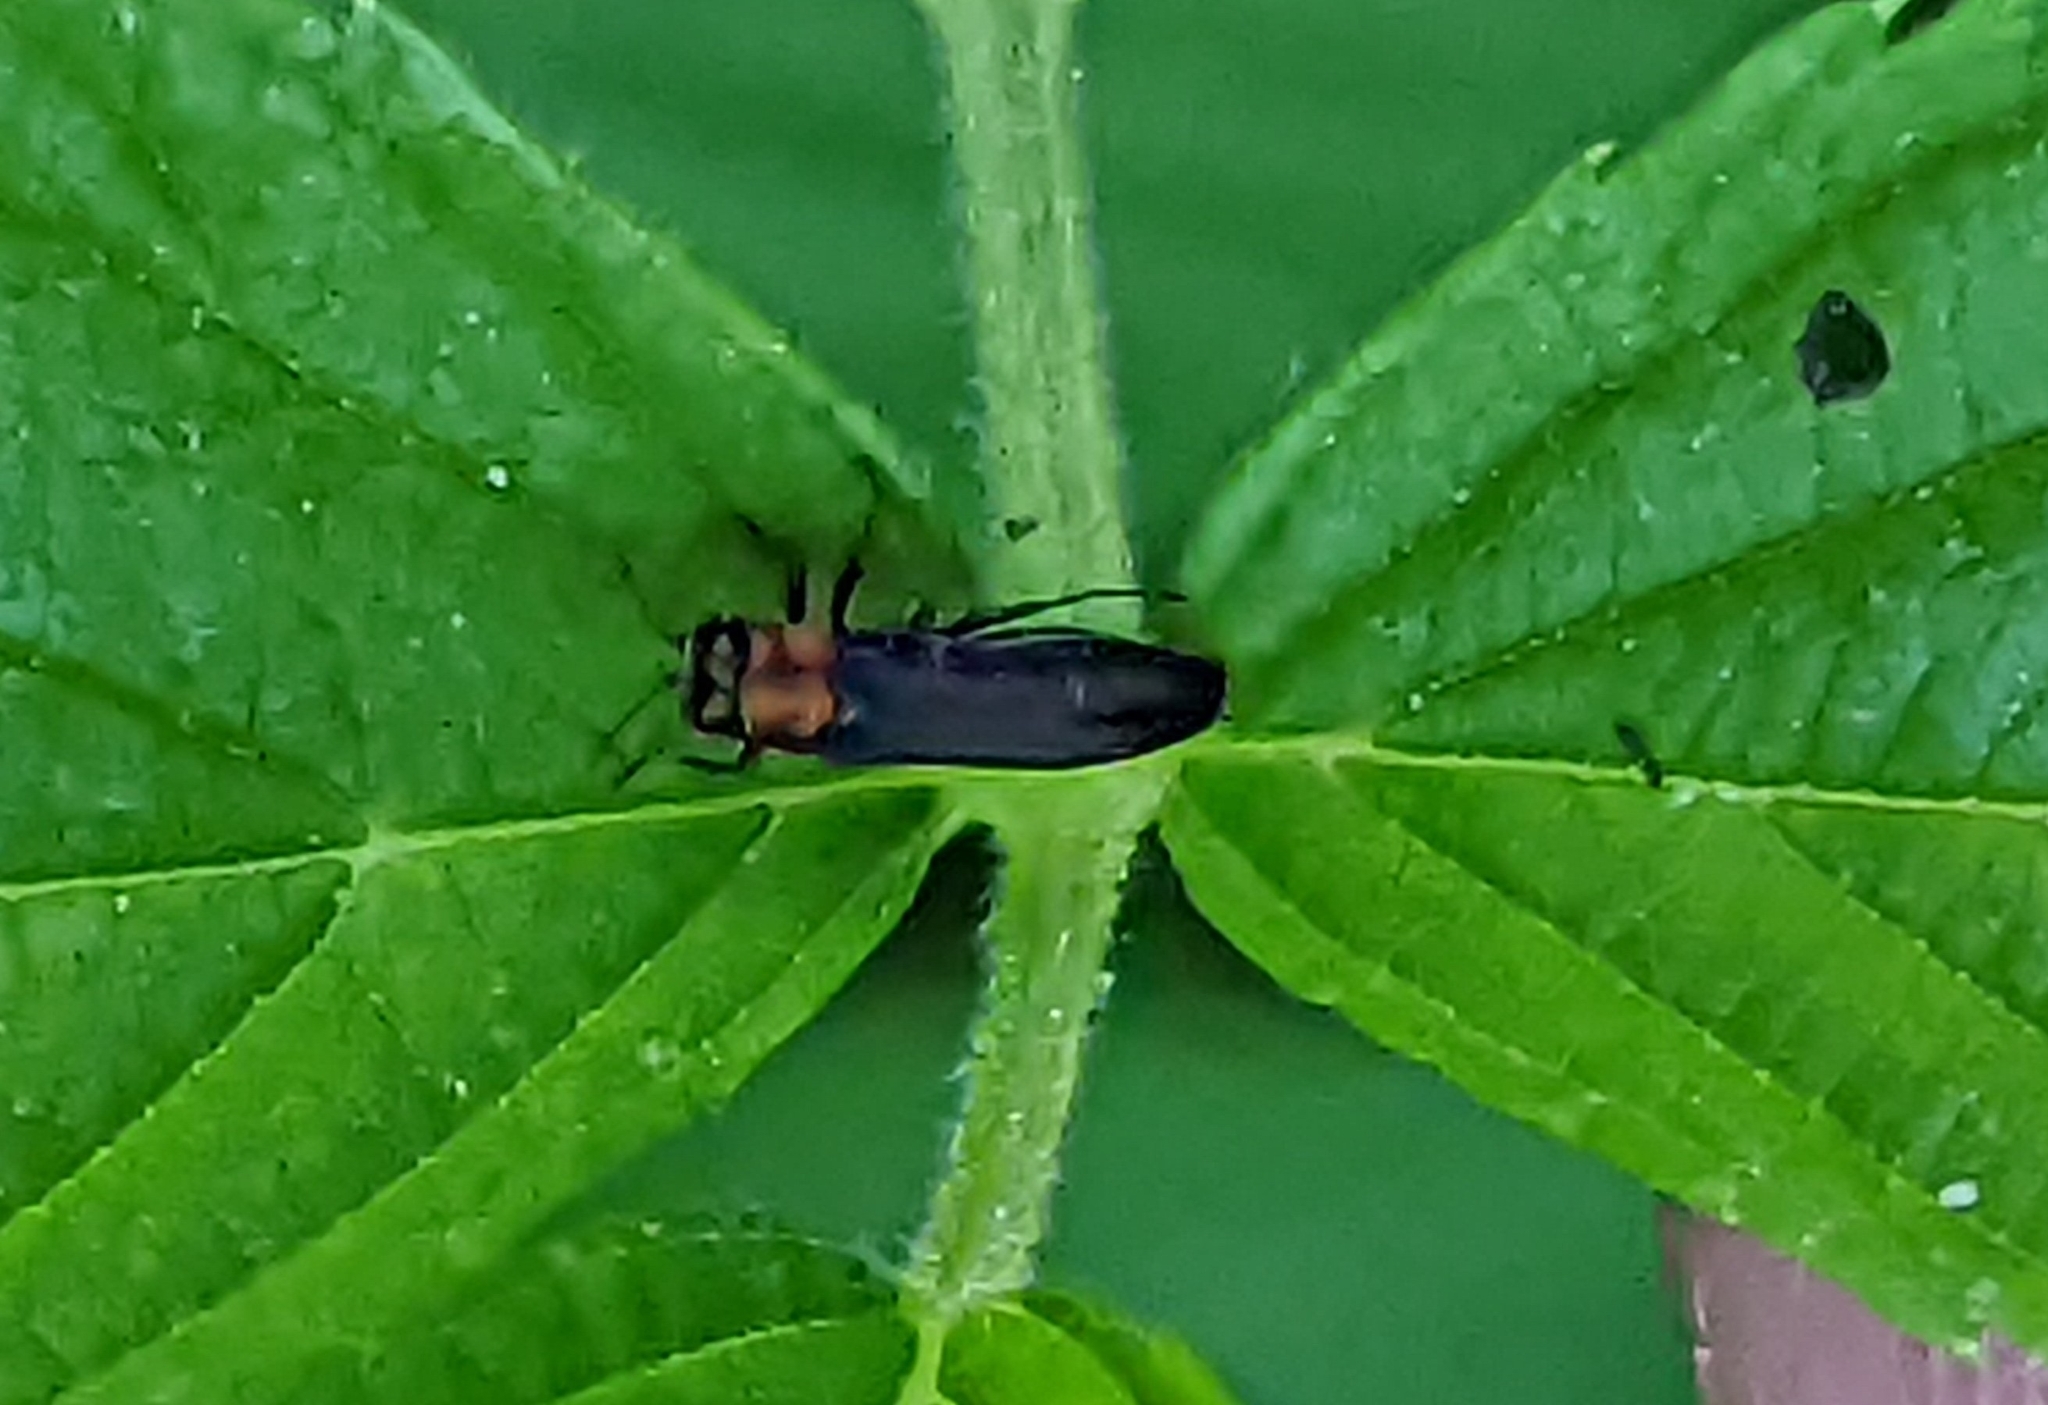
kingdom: Animalia
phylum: Arthropoda
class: Insecta
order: Coleoptera
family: Buprestidae
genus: Agrilus
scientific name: Agrilus ruficollis
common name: Red-necked cane borer beetle
